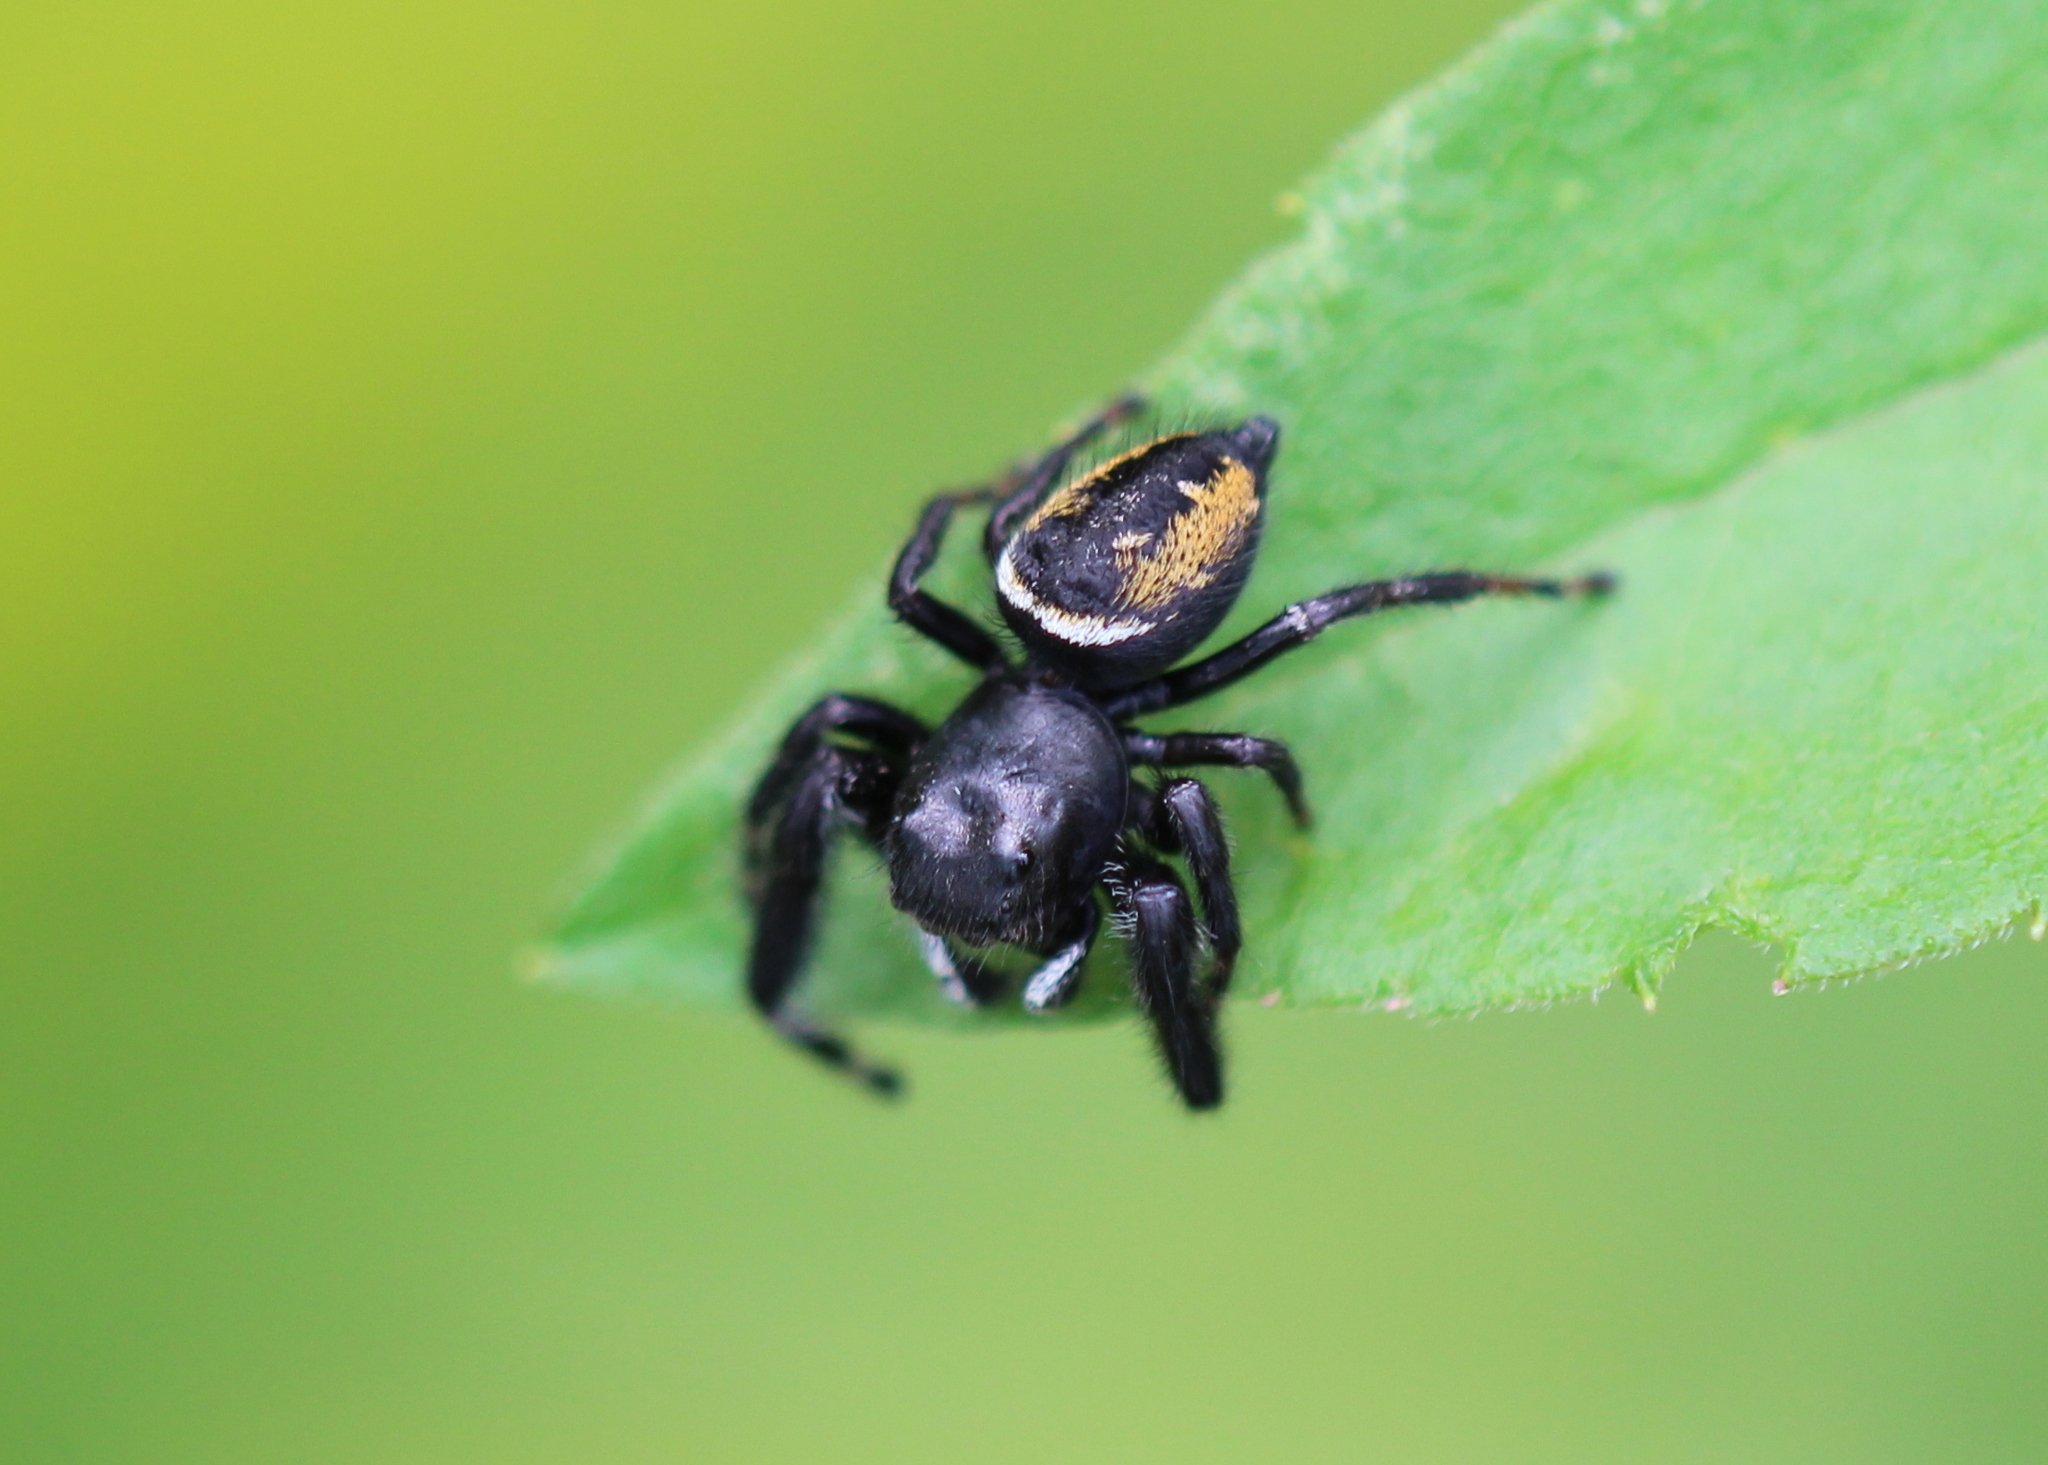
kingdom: Animalia
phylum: Arthropoda
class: Arachnida
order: Araneae
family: Salticidae
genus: Phidippus
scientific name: Phidippus clarus
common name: Brilliant jumping spider
